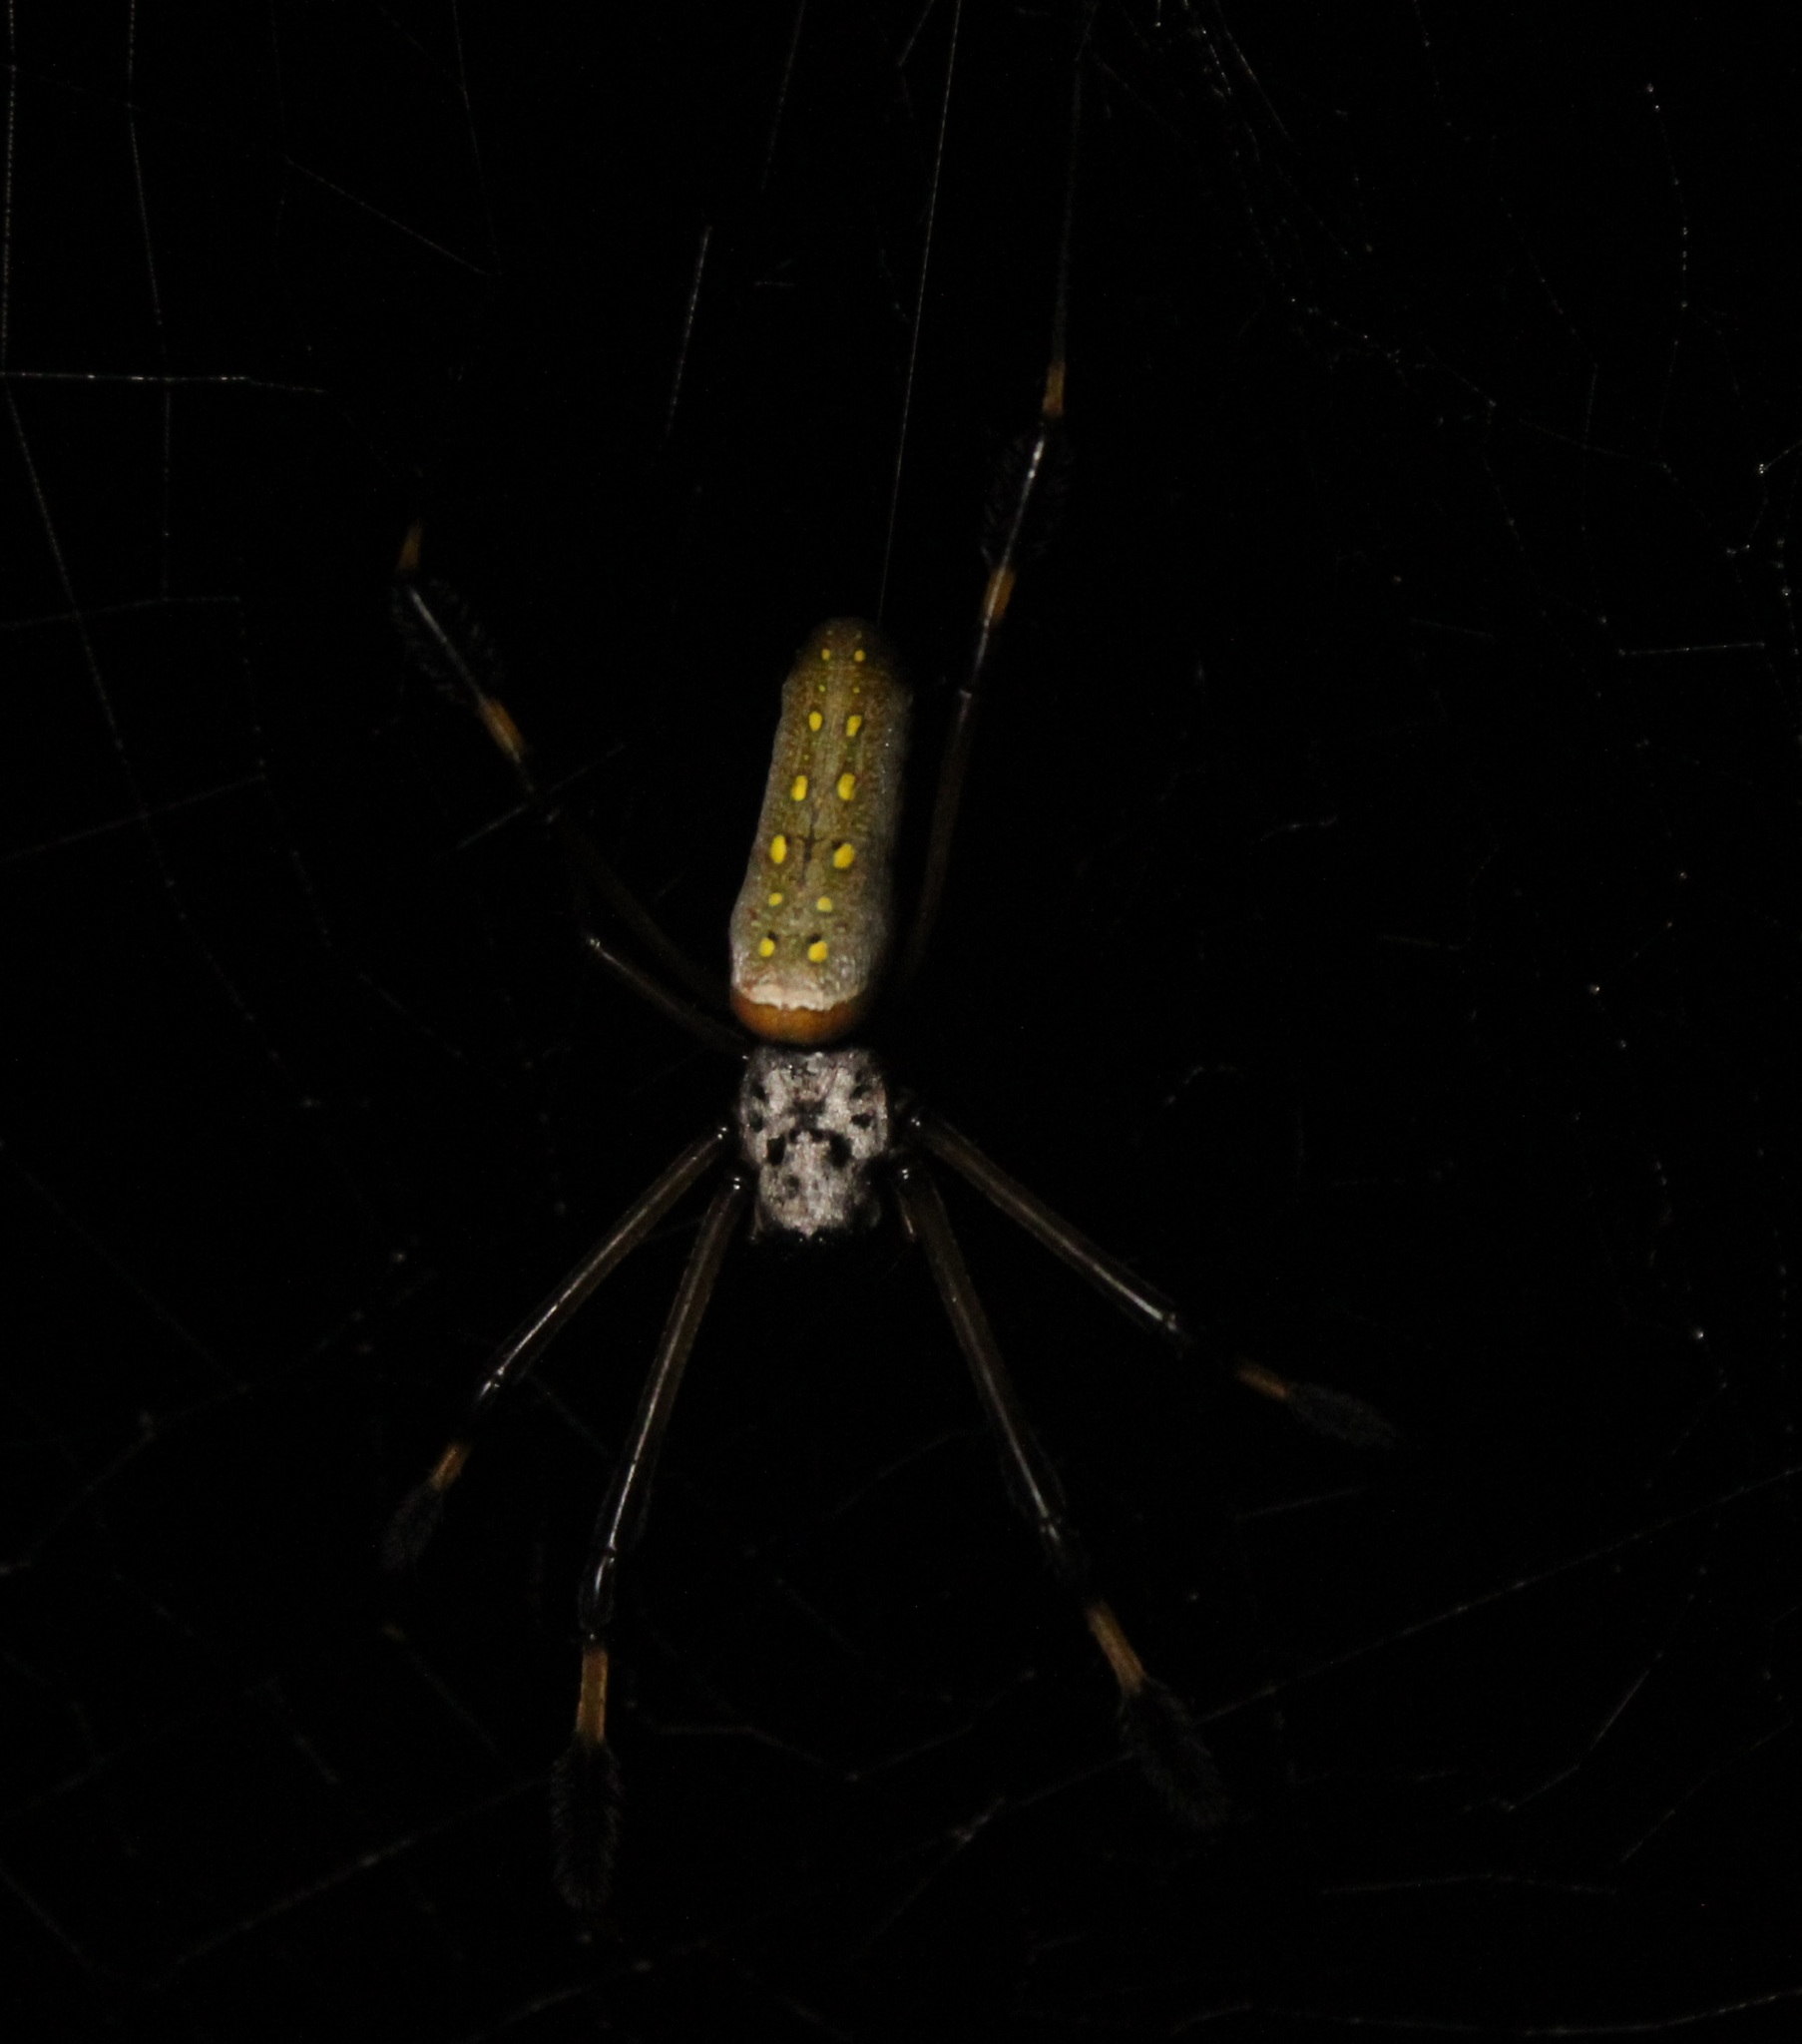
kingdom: Animalia
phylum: Arthropoda
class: Arachnida
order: Araneae
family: Araneidae
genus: Trichonephila
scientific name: Trichonephila clavipes
